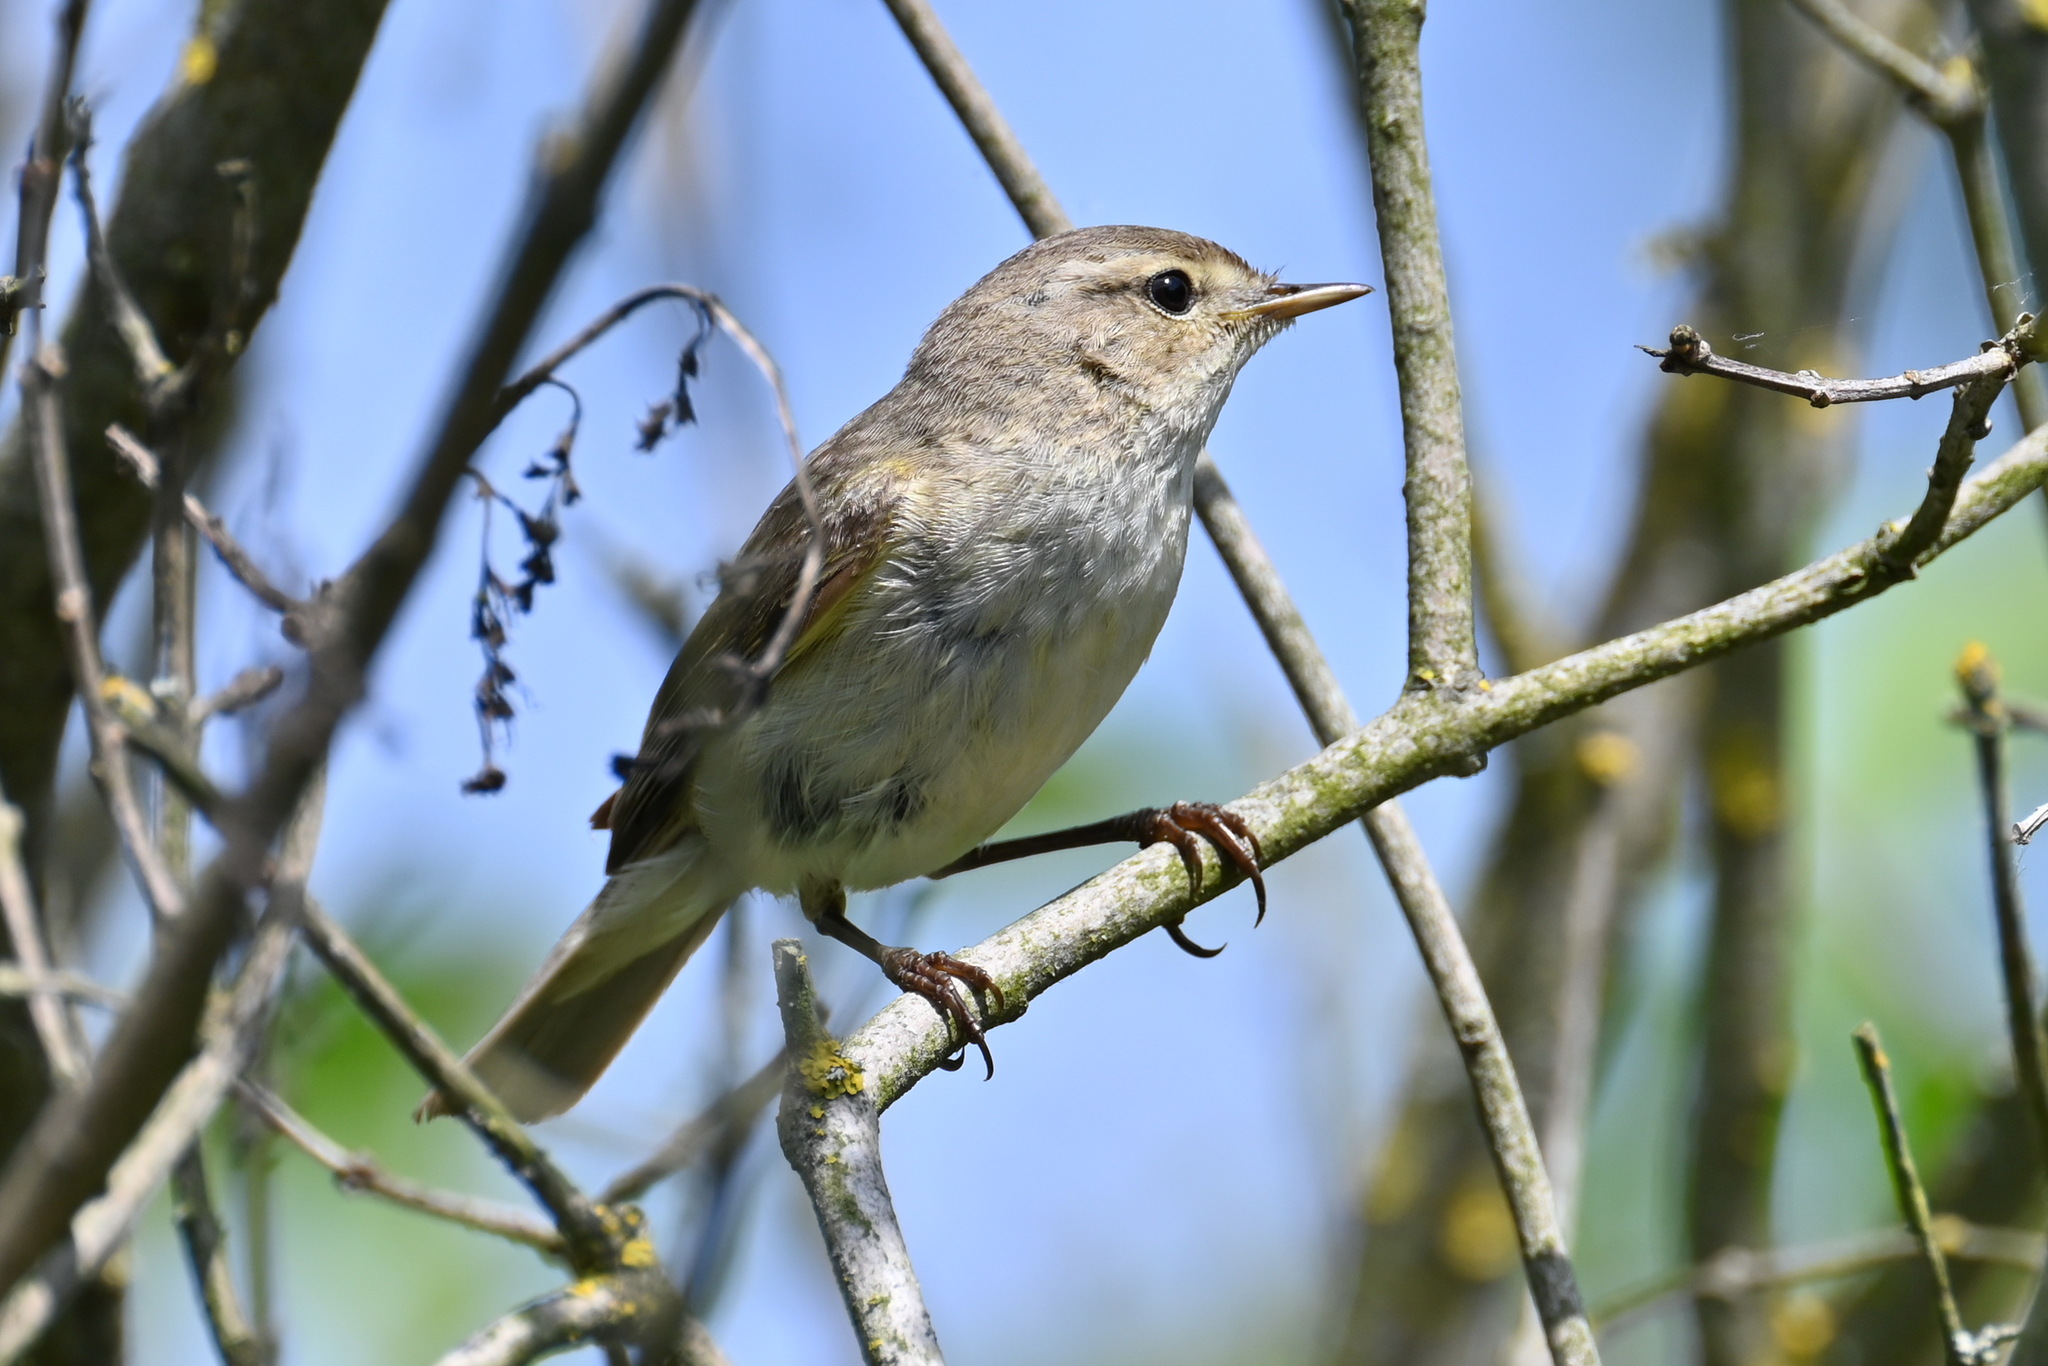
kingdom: Animalia
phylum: Chordata
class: Aves
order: Passeriformes
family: Phylloscopidae
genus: Phylloscopus
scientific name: Phylloscopus collybita
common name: Common chiffchaff
